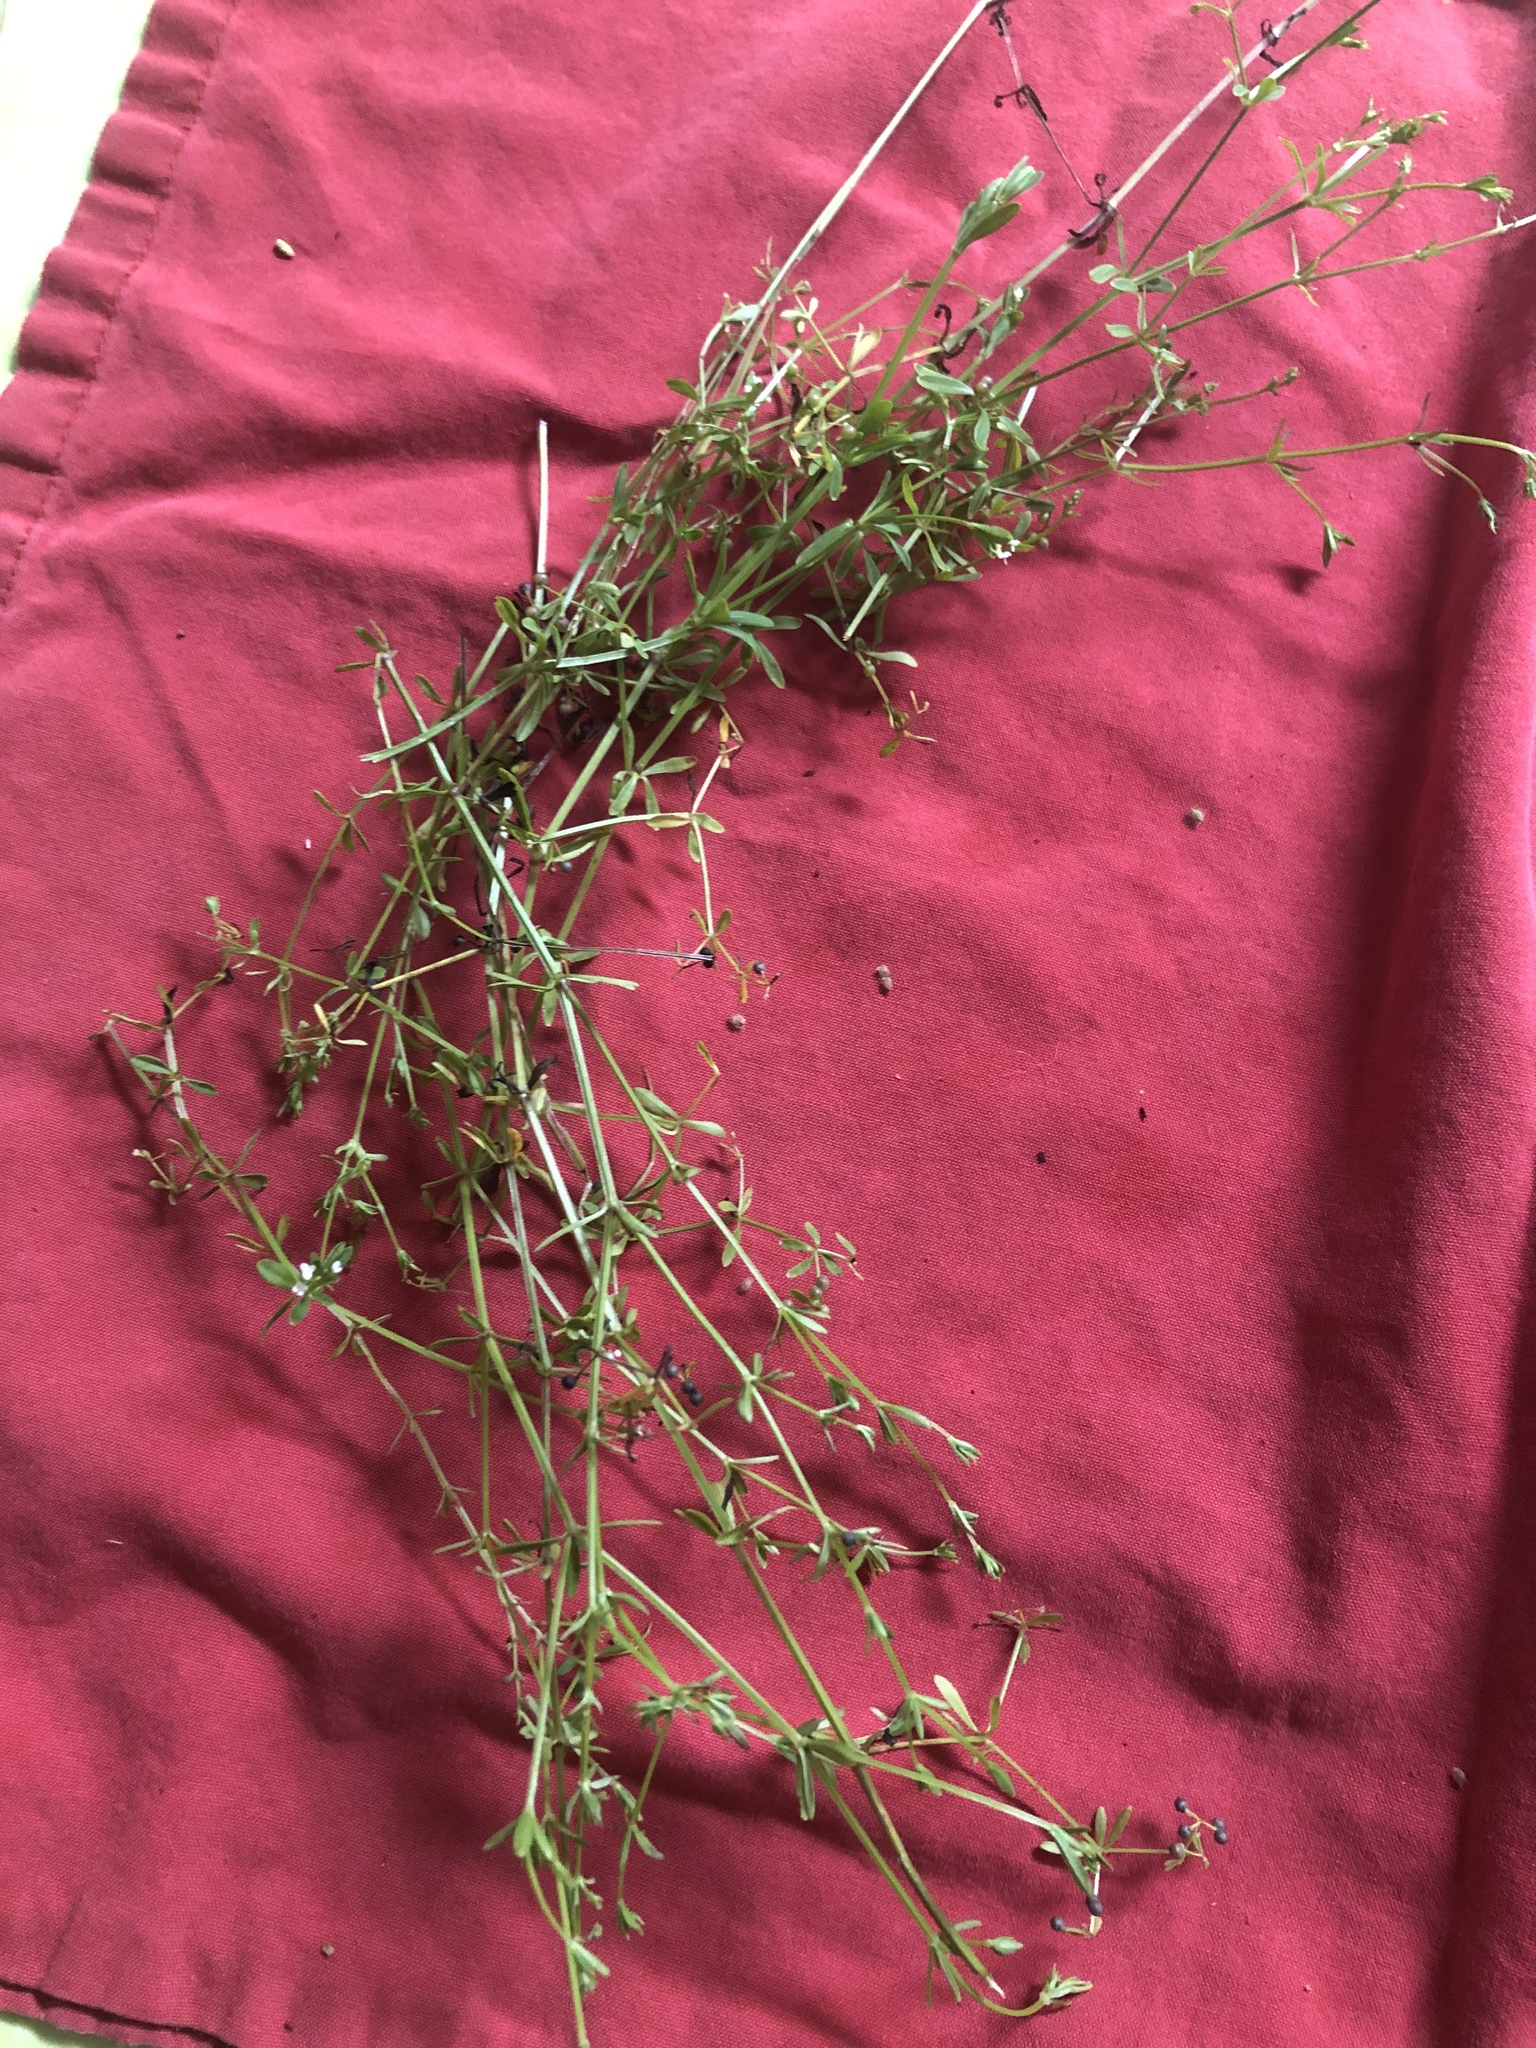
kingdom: Plantae
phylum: Tracheophyta
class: Magnoliopsida
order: Gentianales
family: Rubiaceae
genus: Galium
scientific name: Galium tinctorium
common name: Bedstraw
